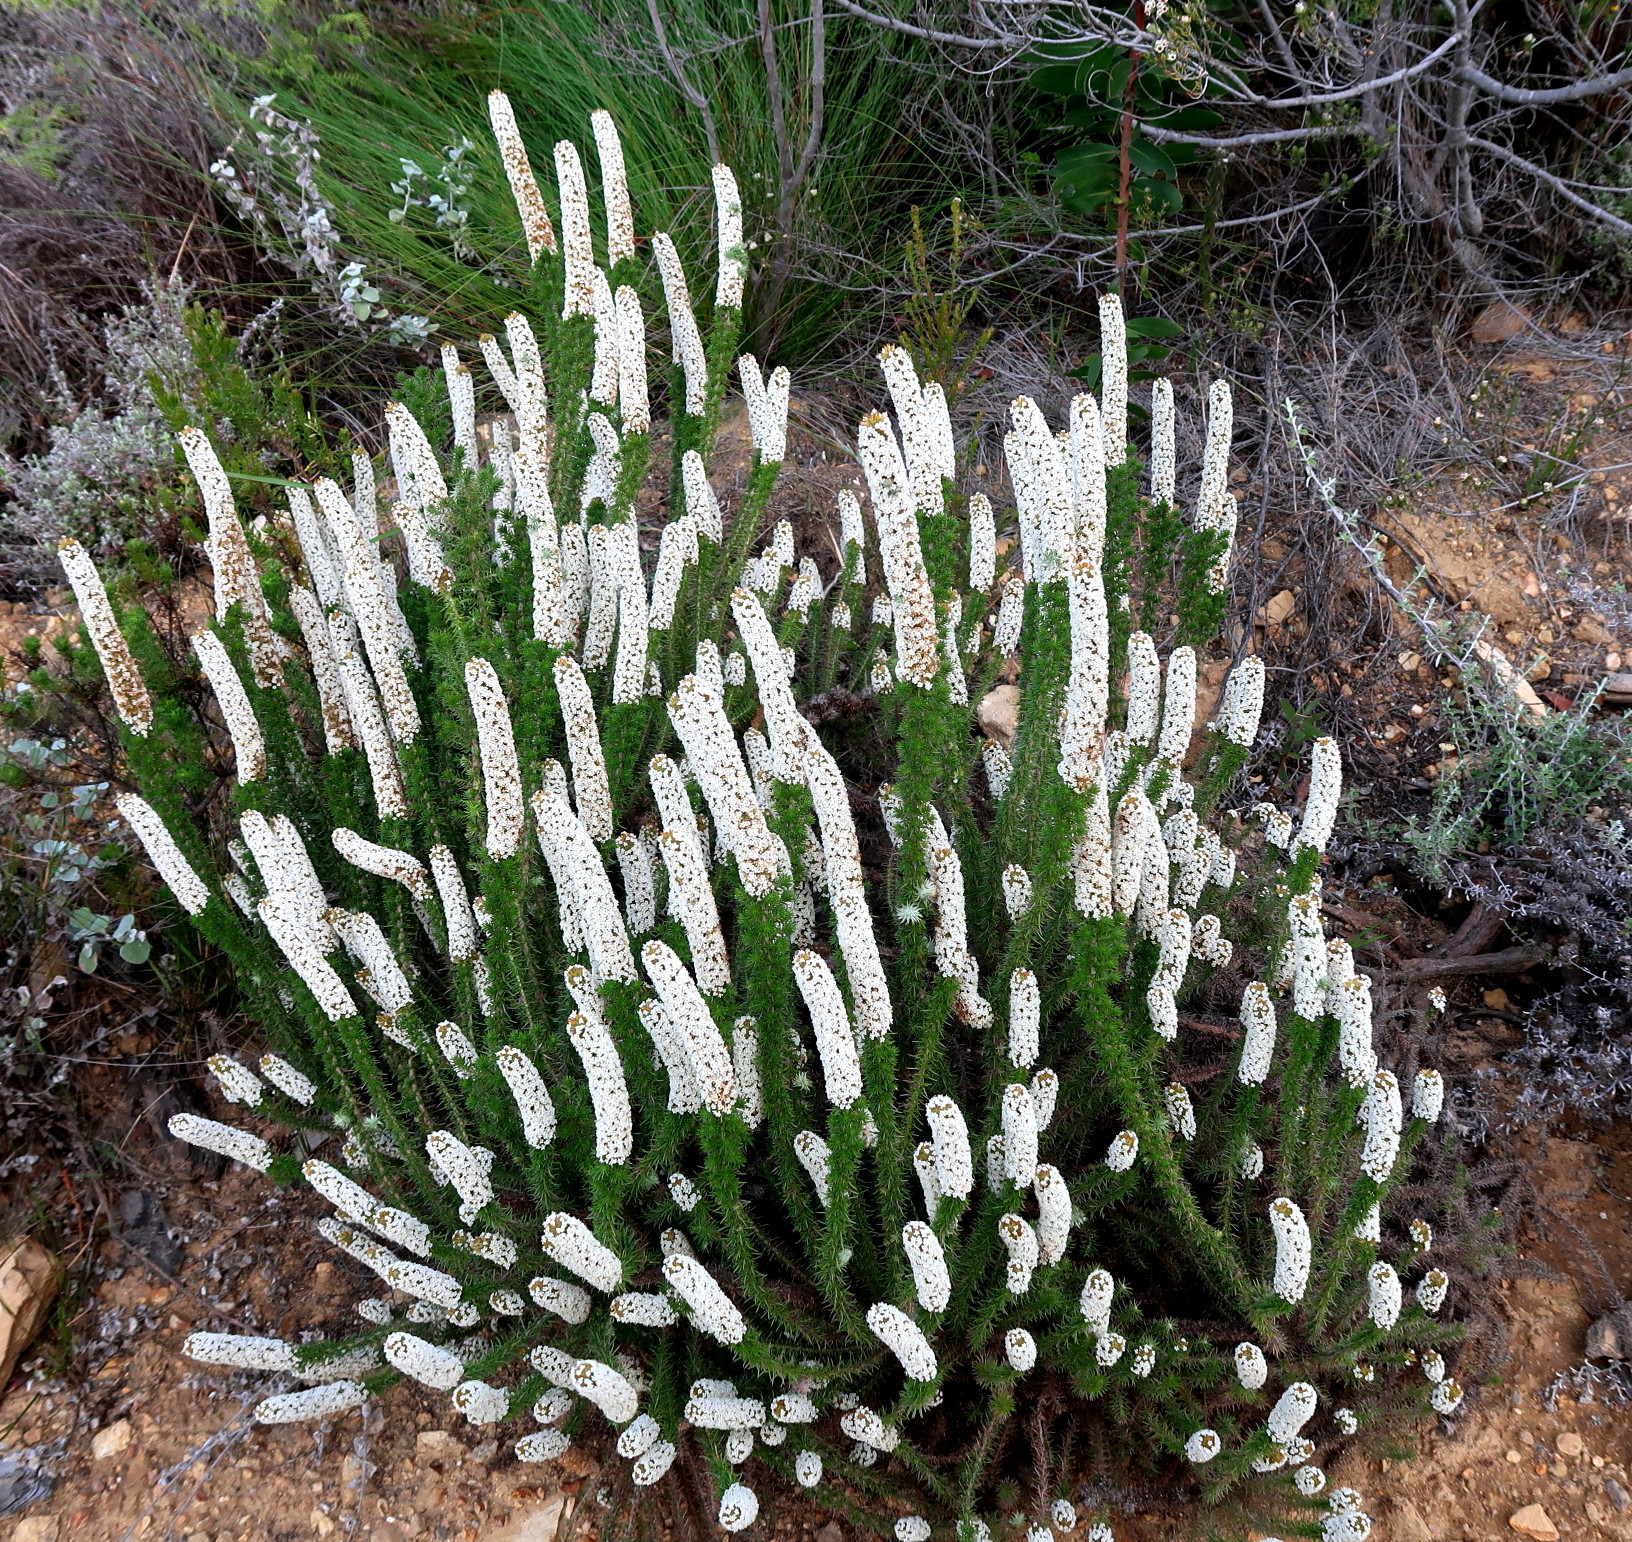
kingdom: Plantae
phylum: Tracheophyta
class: Magnoliopsida
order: Asterales
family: Asteraceae
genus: Stoebe
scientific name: Stoebe alopecuroides
